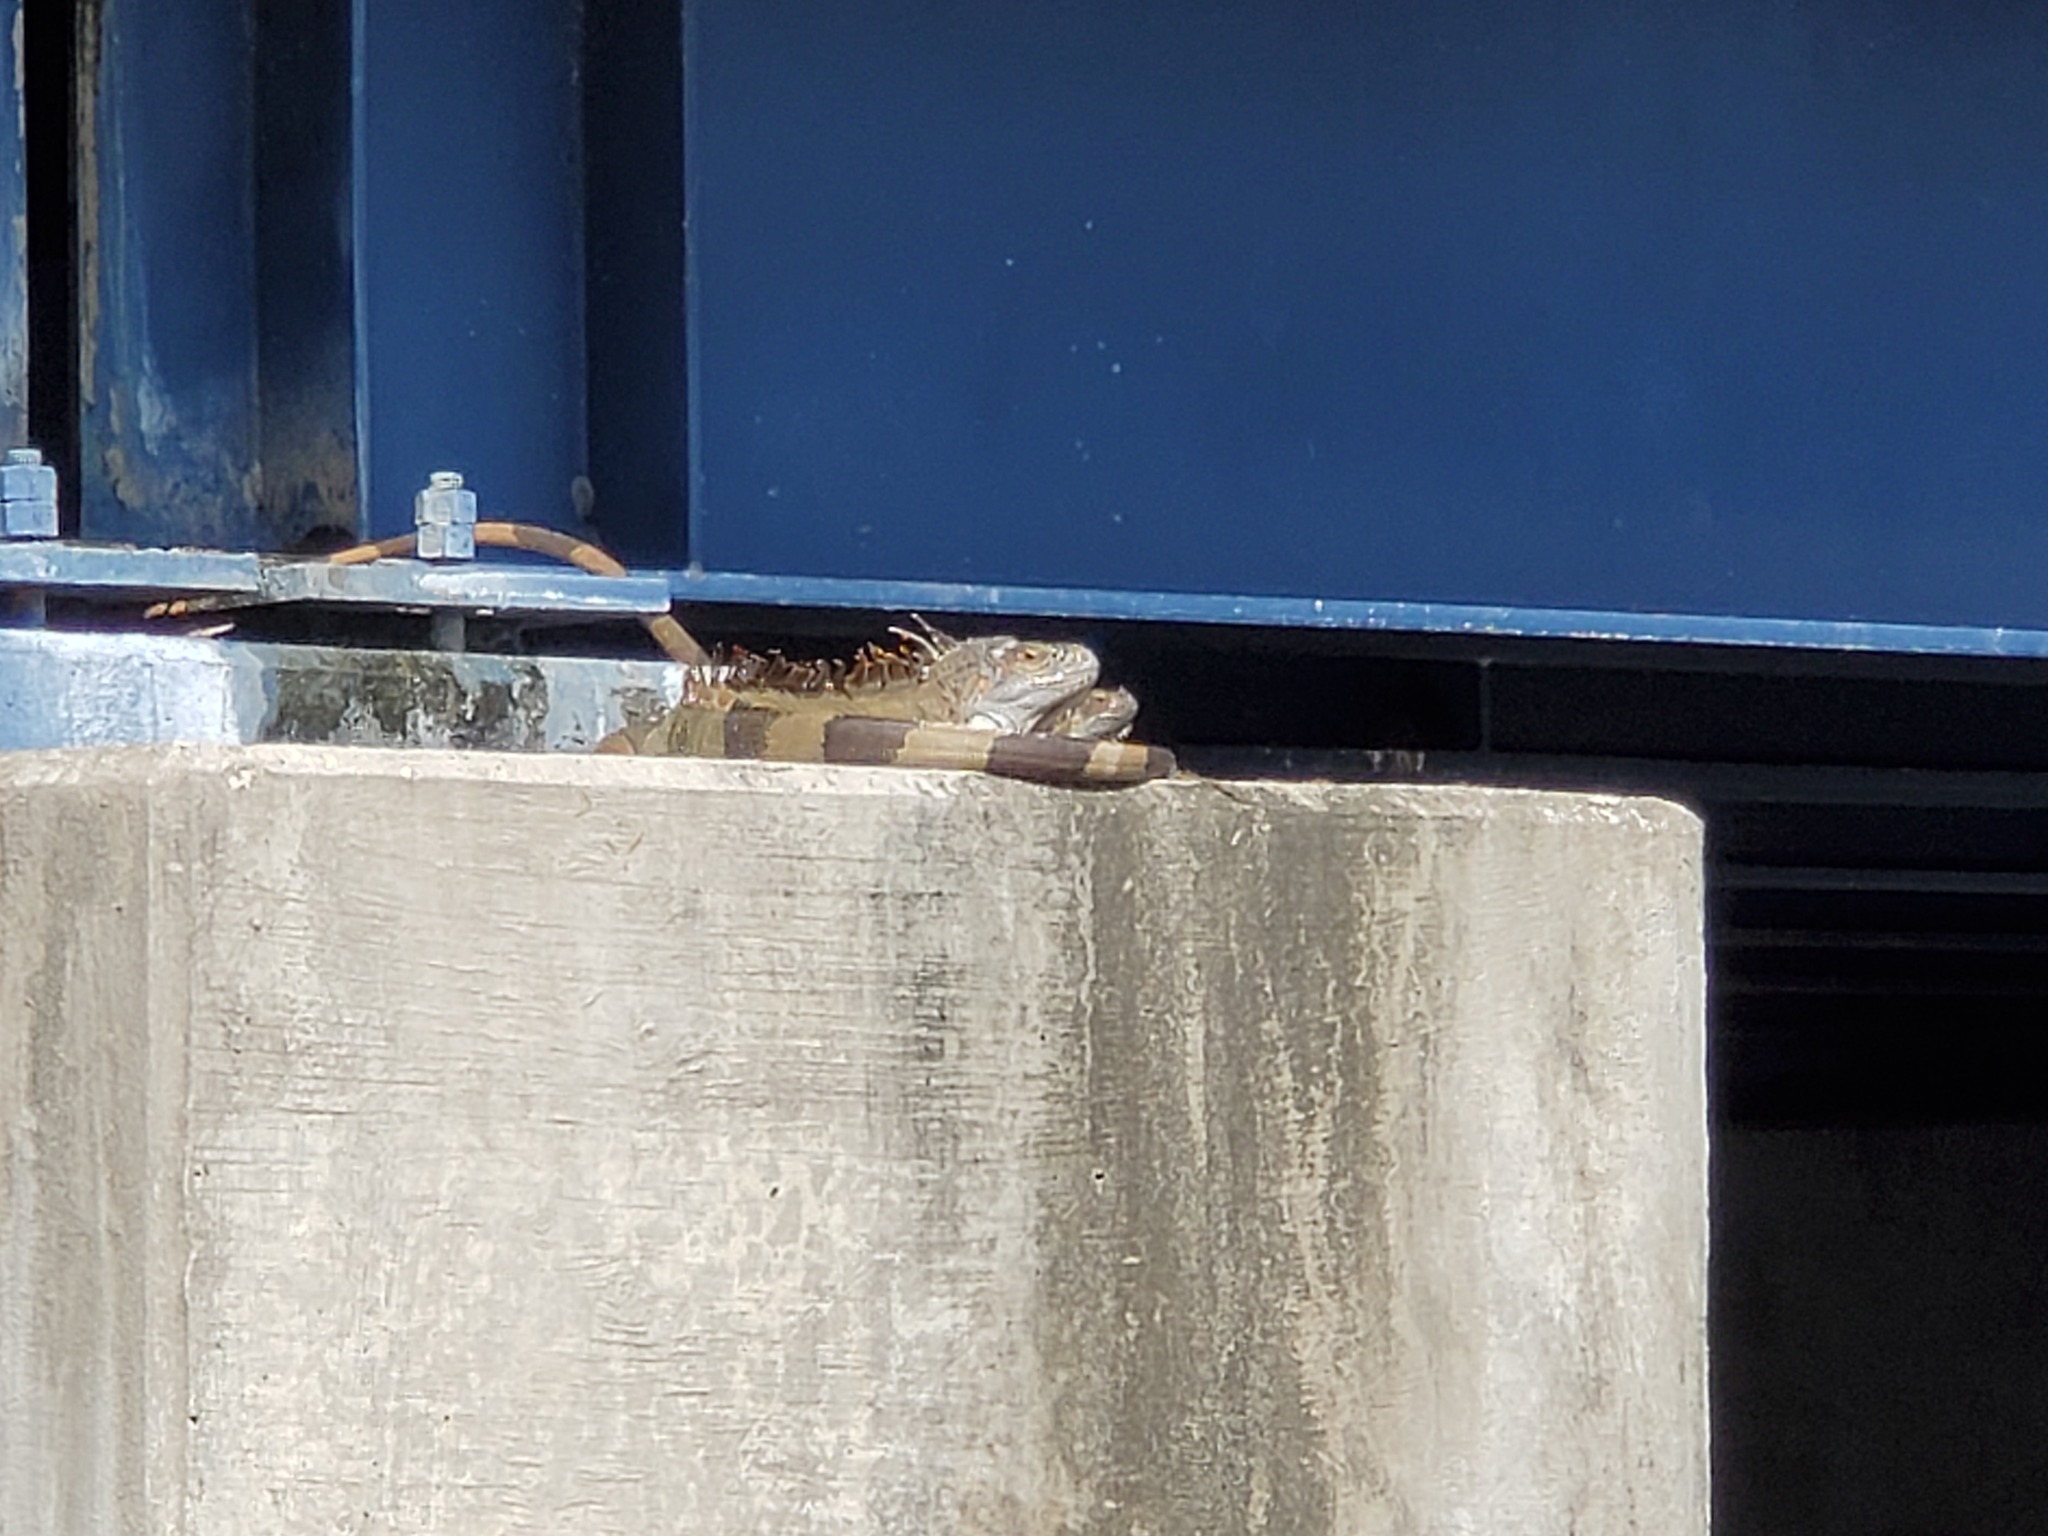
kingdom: Animalia
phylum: Chordata
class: Squamata
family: Iguanidae
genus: Iguana
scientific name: Iguana iguana
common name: Green iguana
